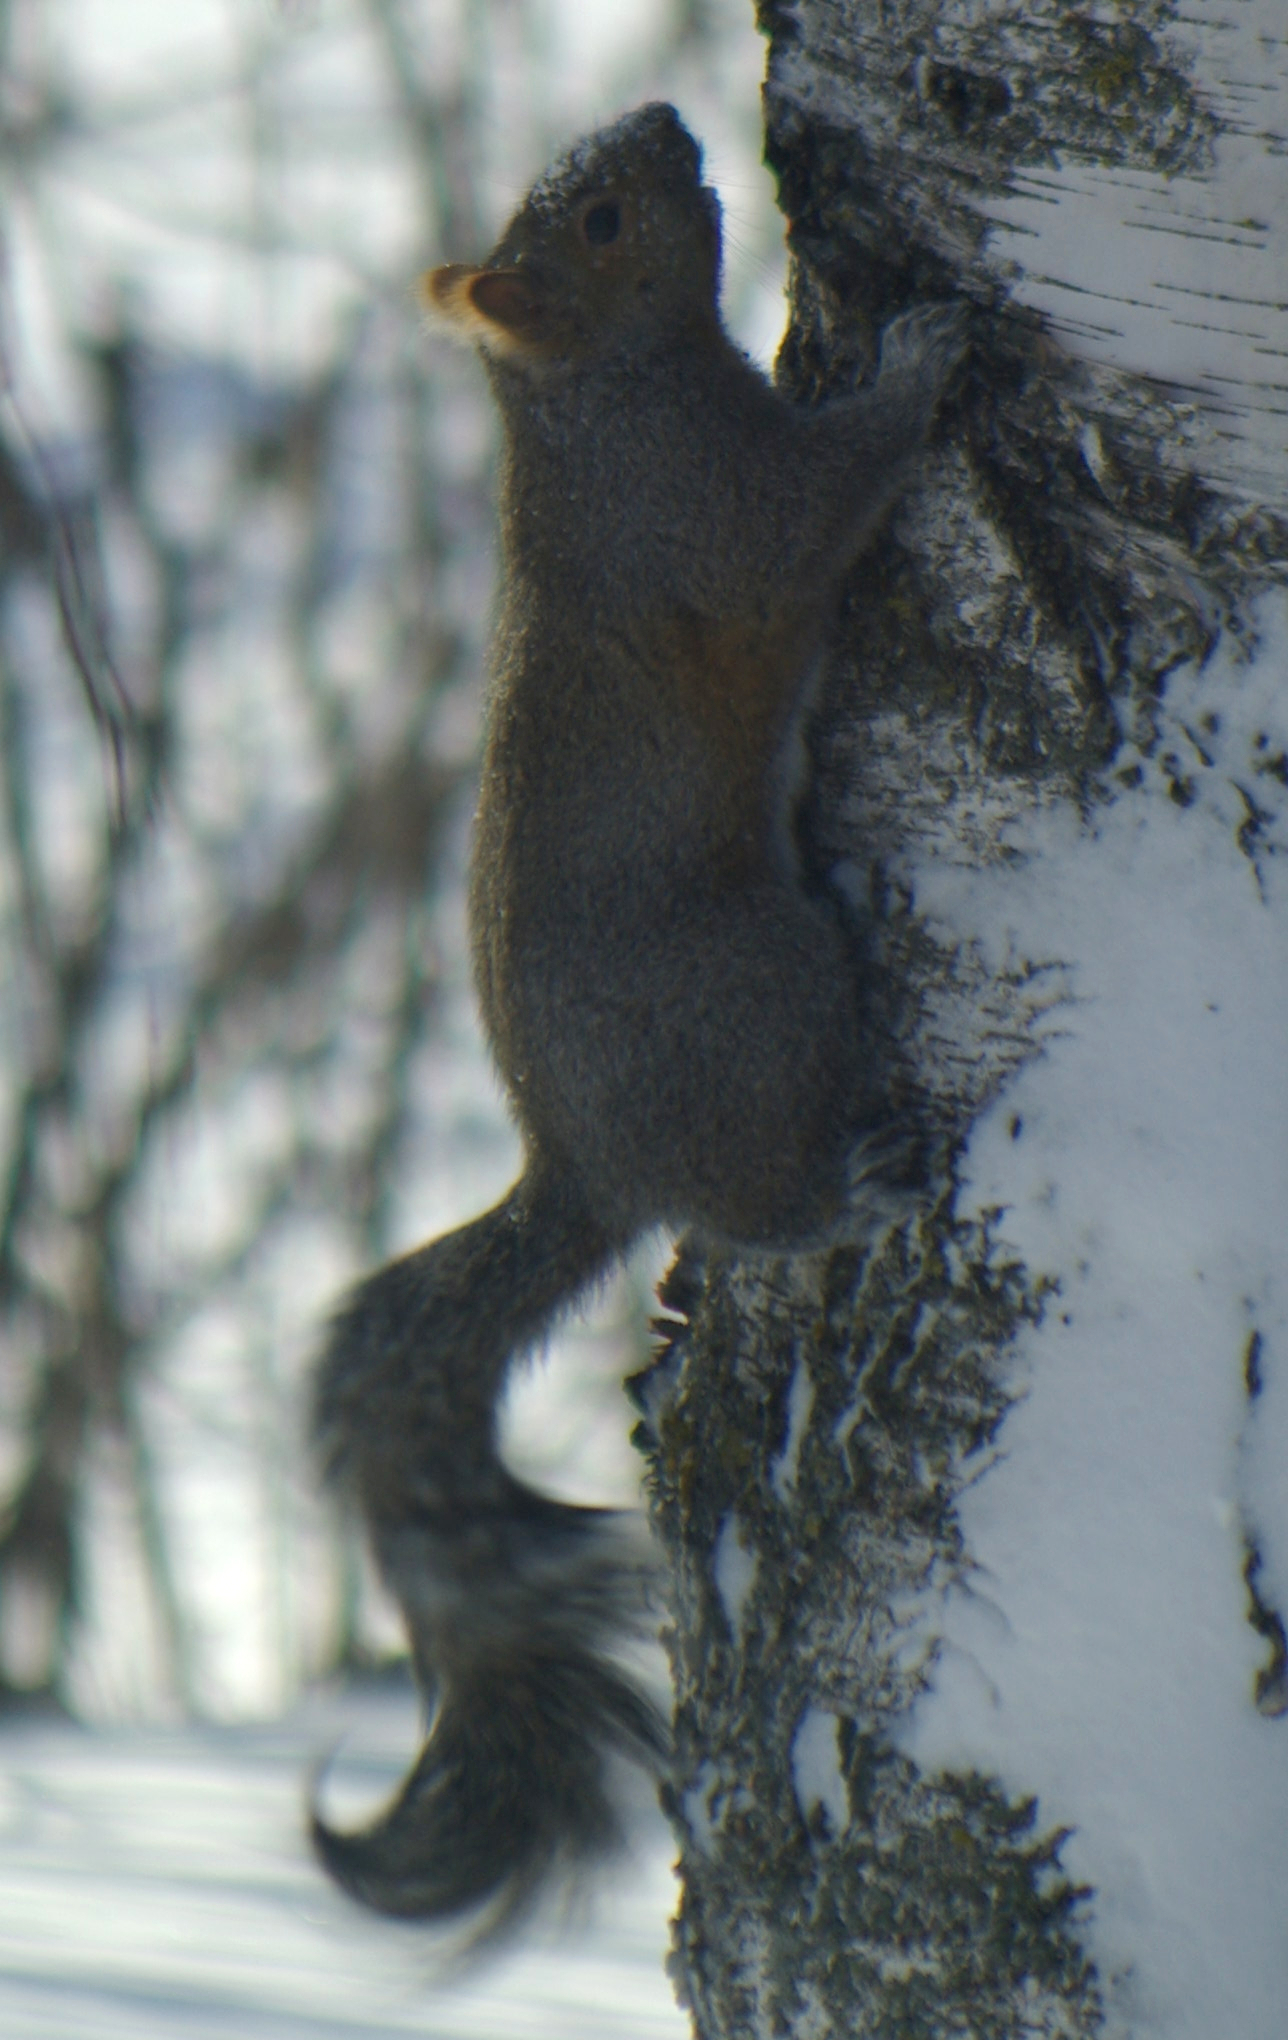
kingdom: Animalia
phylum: Chordata
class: Mammalia
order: Rodentia
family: Sciuridae
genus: Sciurus
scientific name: Sciurus carolinensis
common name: Eastern gray squirrel
